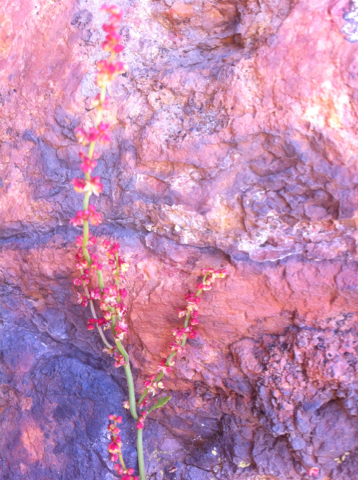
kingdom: Plantae
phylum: Tracheophyta
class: Magnoliopsida
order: Caryophyllales
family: Polygonaceae
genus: Rumex
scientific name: Rumex acetosella
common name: Common sheep sorrel
